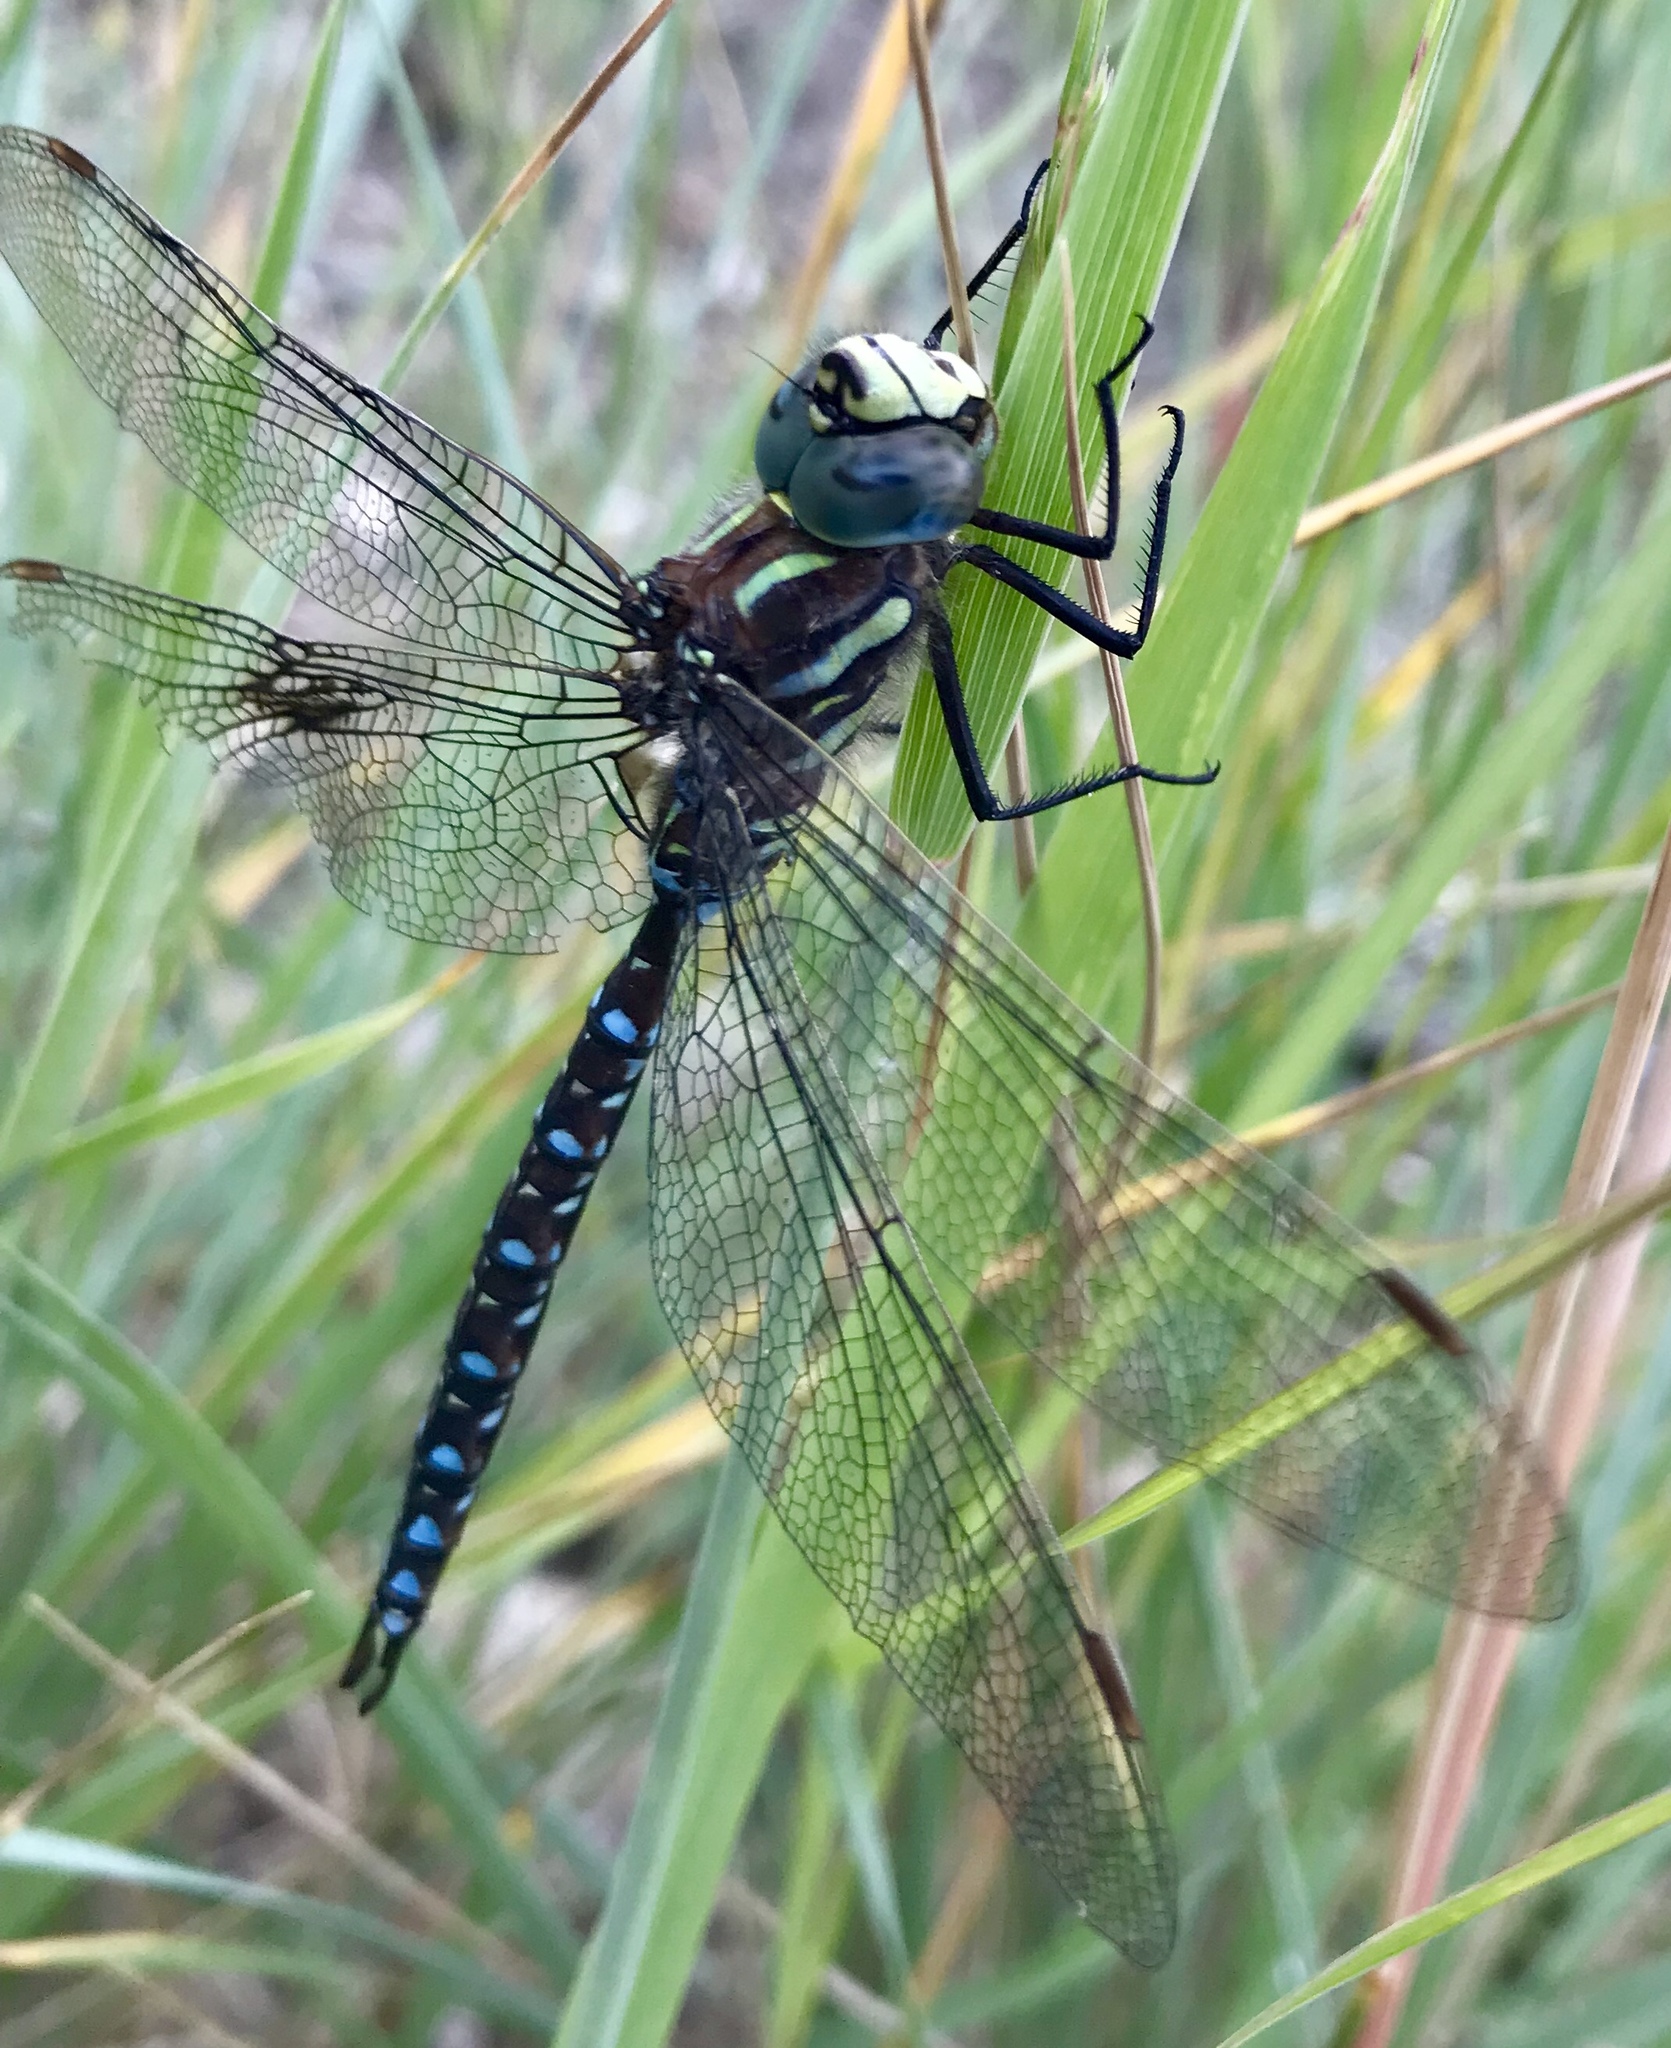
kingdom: Animalia
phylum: Arthropoda
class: Insecta
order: Odonata
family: Aeshnidae
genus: Aeshna
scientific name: Aeshna juncea
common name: Moorland hawker
